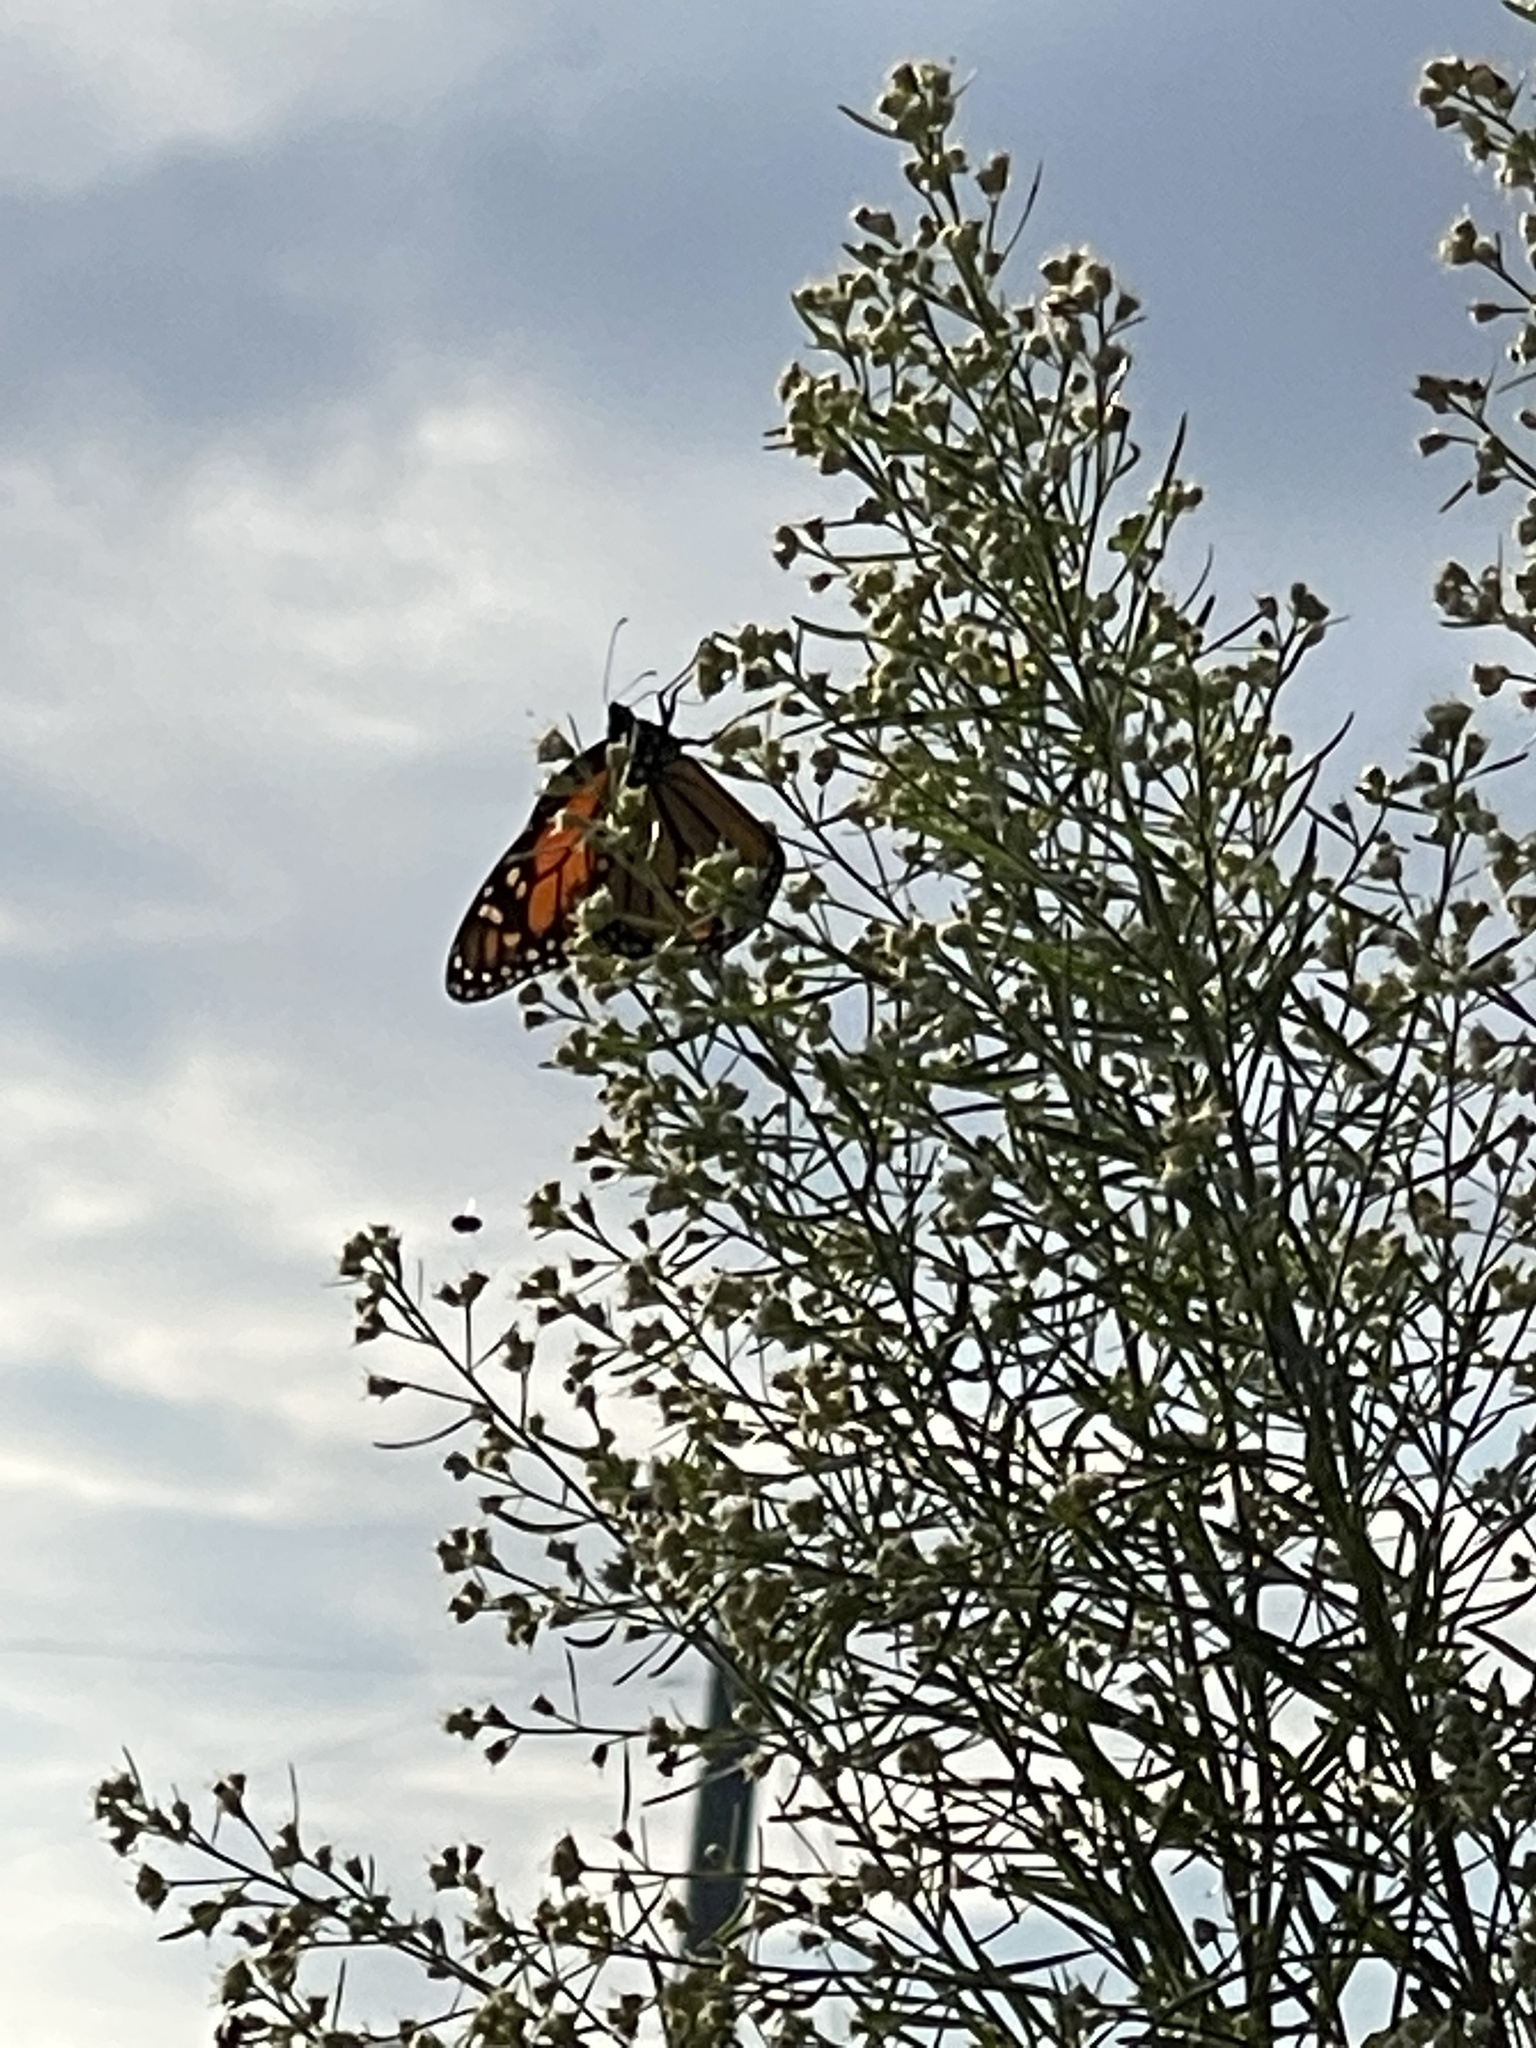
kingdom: Animalia
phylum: Arthropoda
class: Insecta
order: Lepidoptera
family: Nymphalidae
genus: Danaus
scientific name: Danaus plexippus
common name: Monarch
